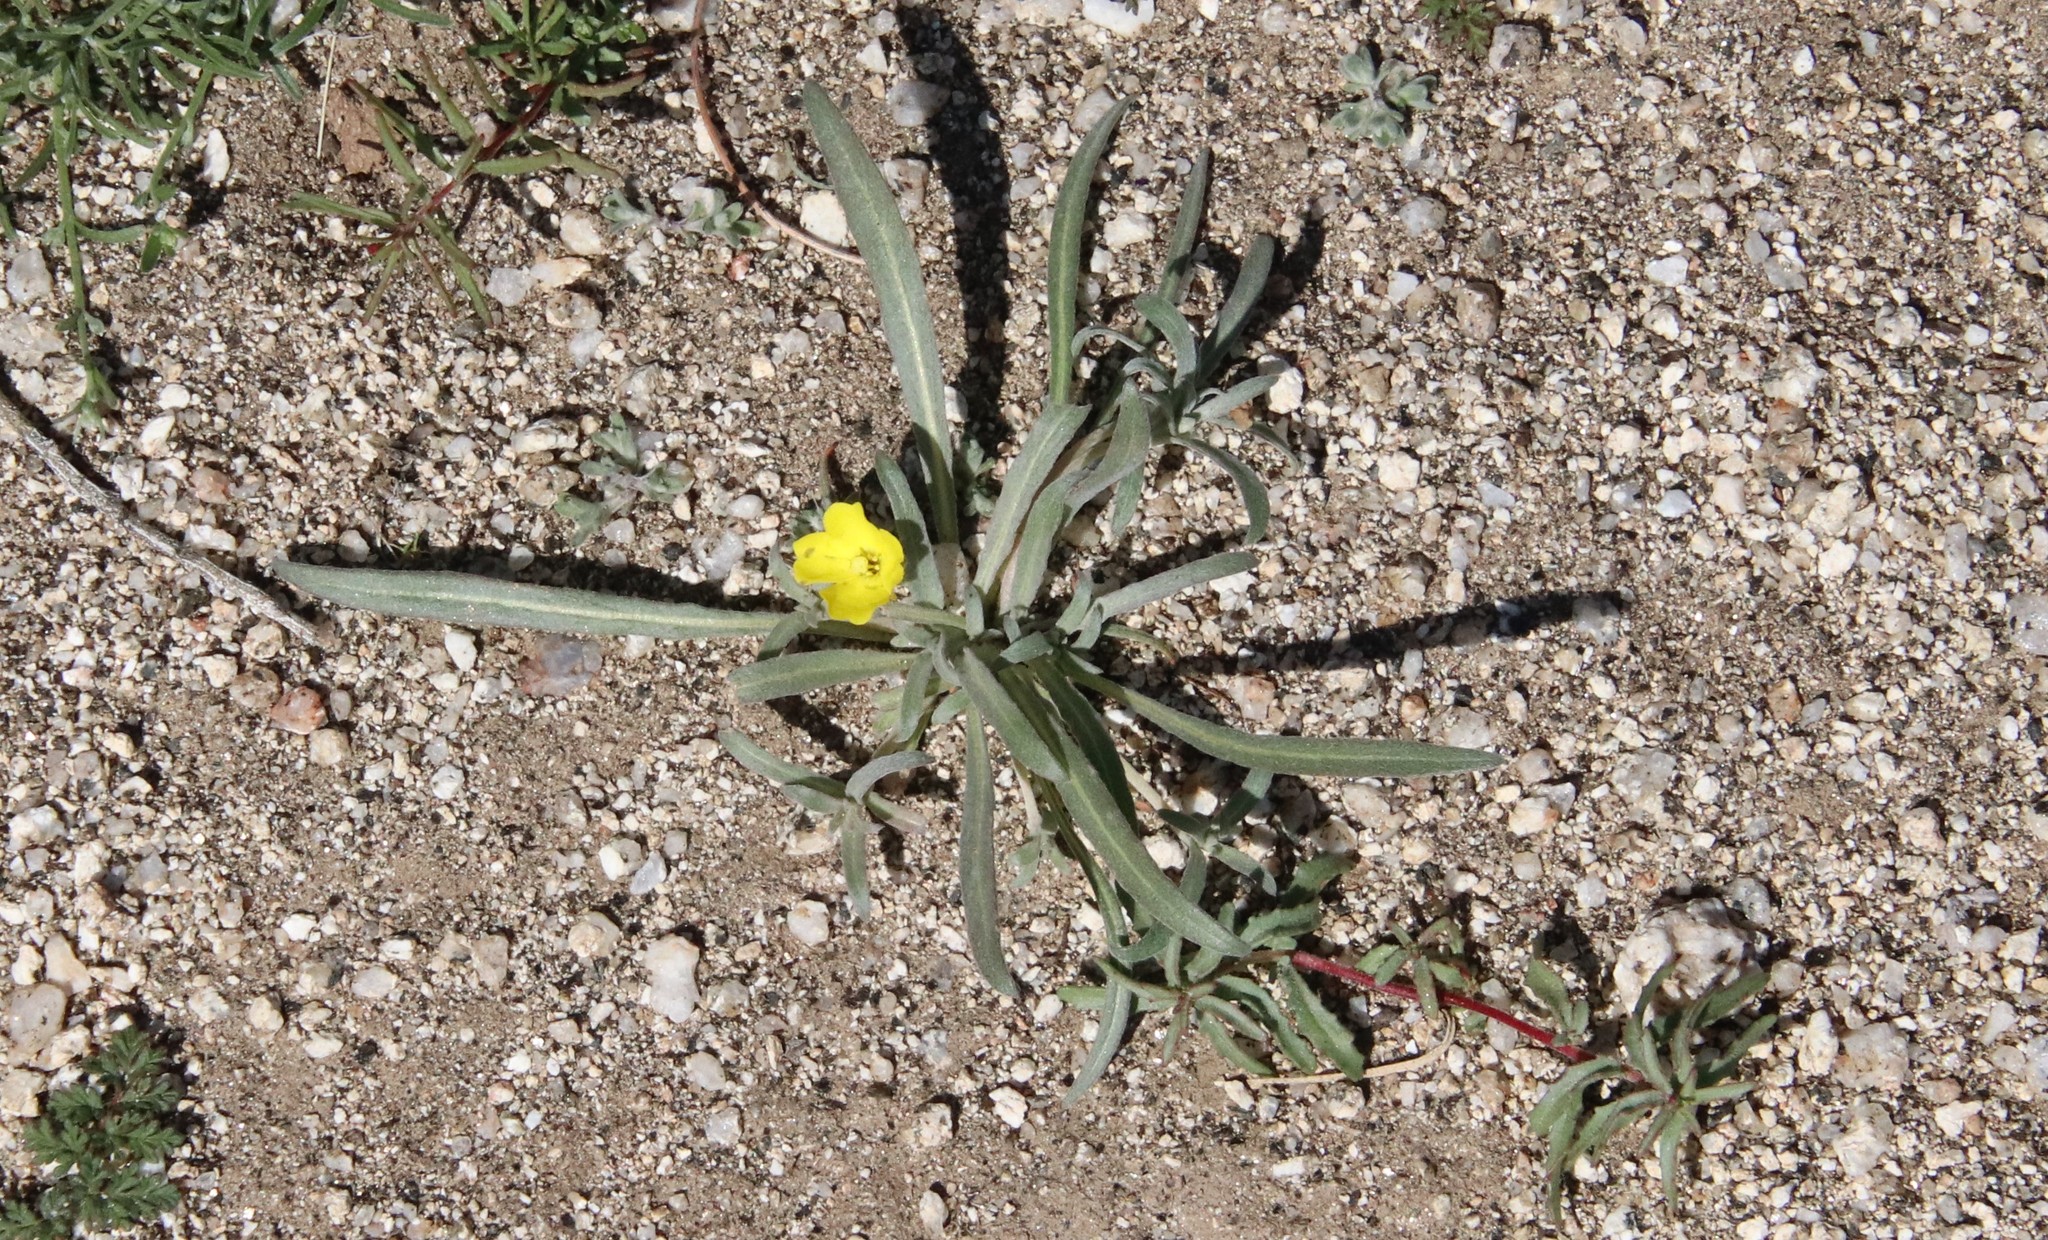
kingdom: Plantae
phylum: Tracheophyta
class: Magnoliopsida
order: Myrtales
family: Onagraceae
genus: Camissoniopsis
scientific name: Camissoniopsis pallida
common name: Paleyellow suncup
